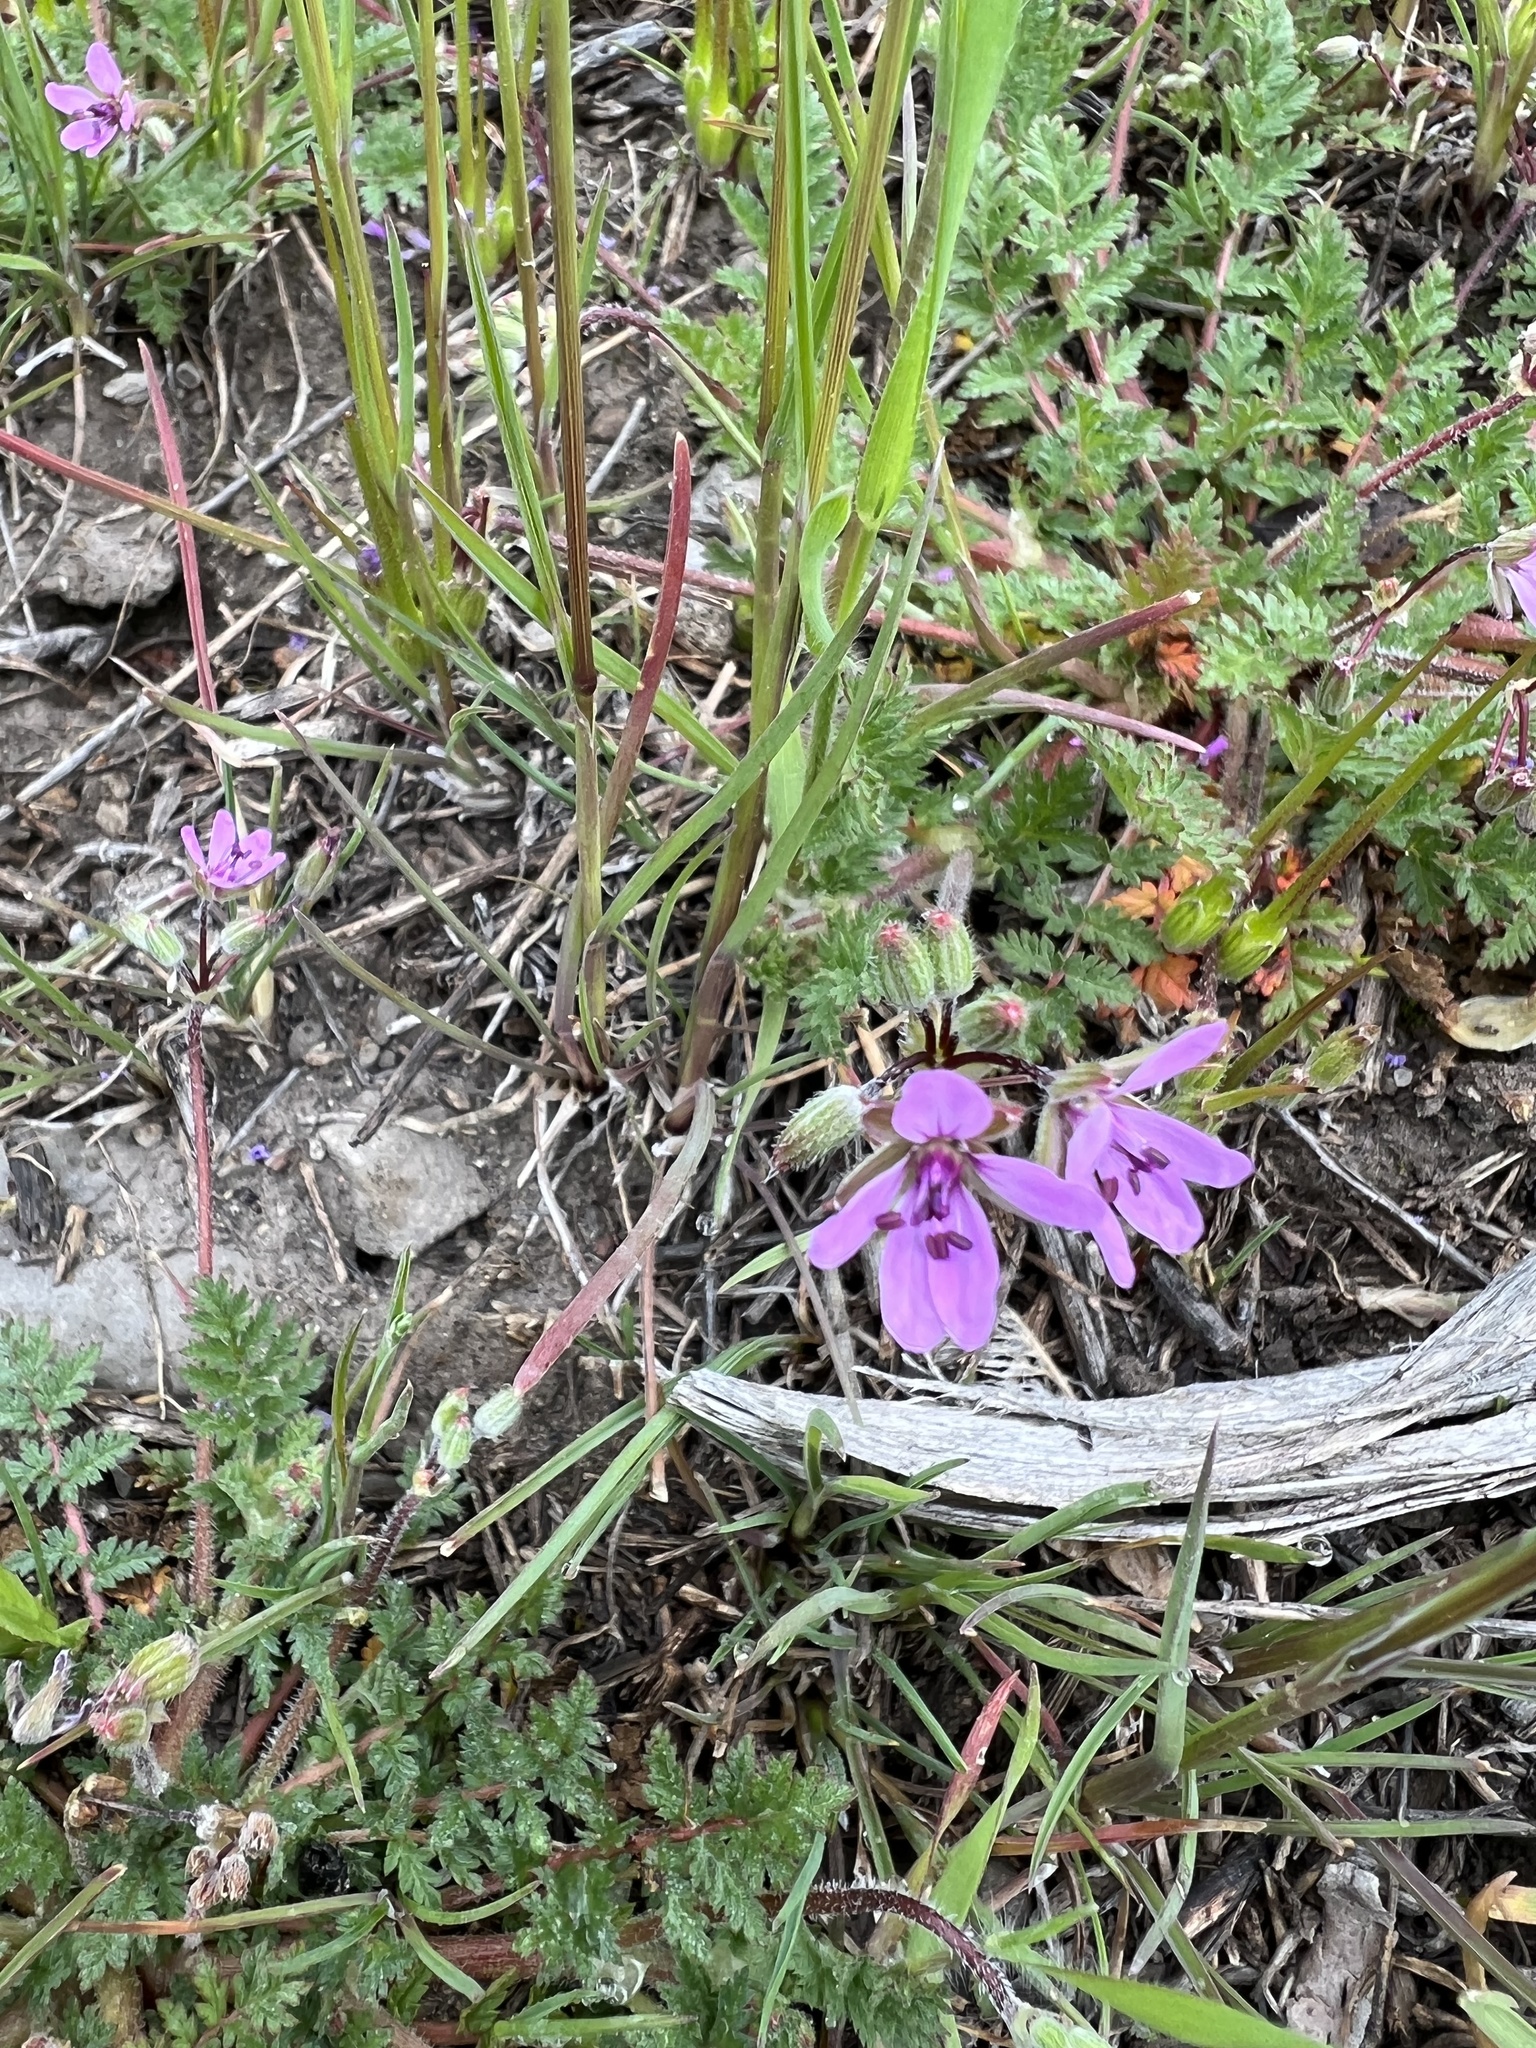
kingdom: Plantae
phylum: Tracheophyta
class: Magnoliopsida
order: Geraniales
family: Geraniaceae
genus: Erodium
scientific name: Erodium cicutarium
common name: Common stork's-bill
